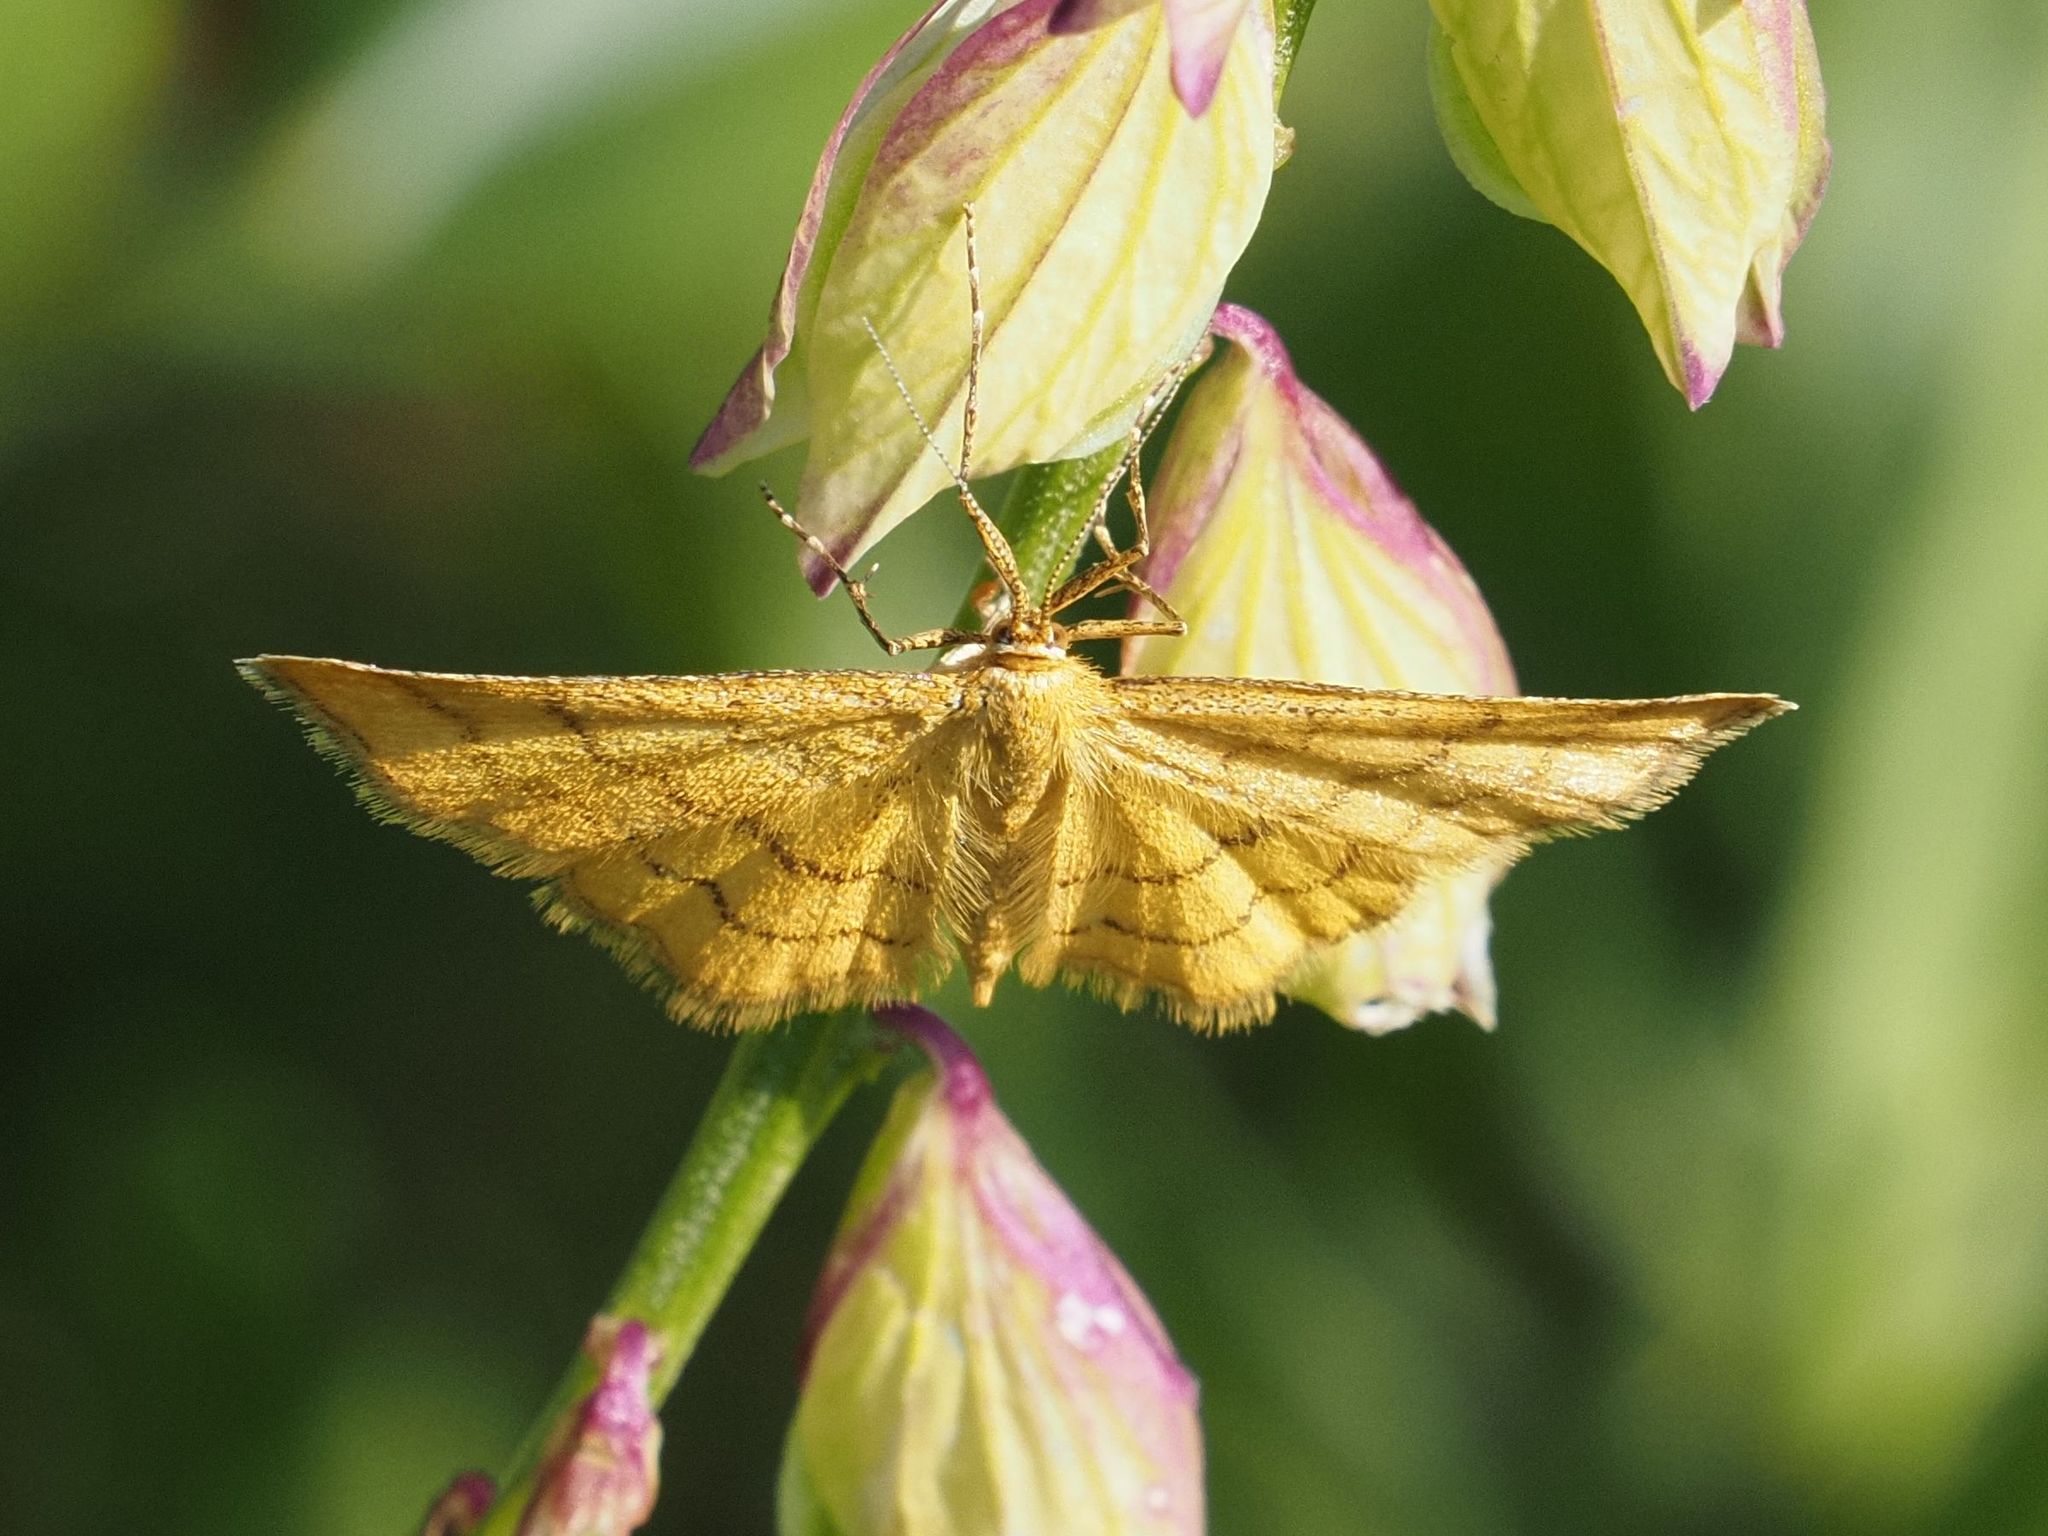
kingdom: Animalia
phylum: Arthropoda
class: Insecta
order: Lepidoptera
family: Geometridae
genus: Idaea
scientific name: Idaea aureolaria
